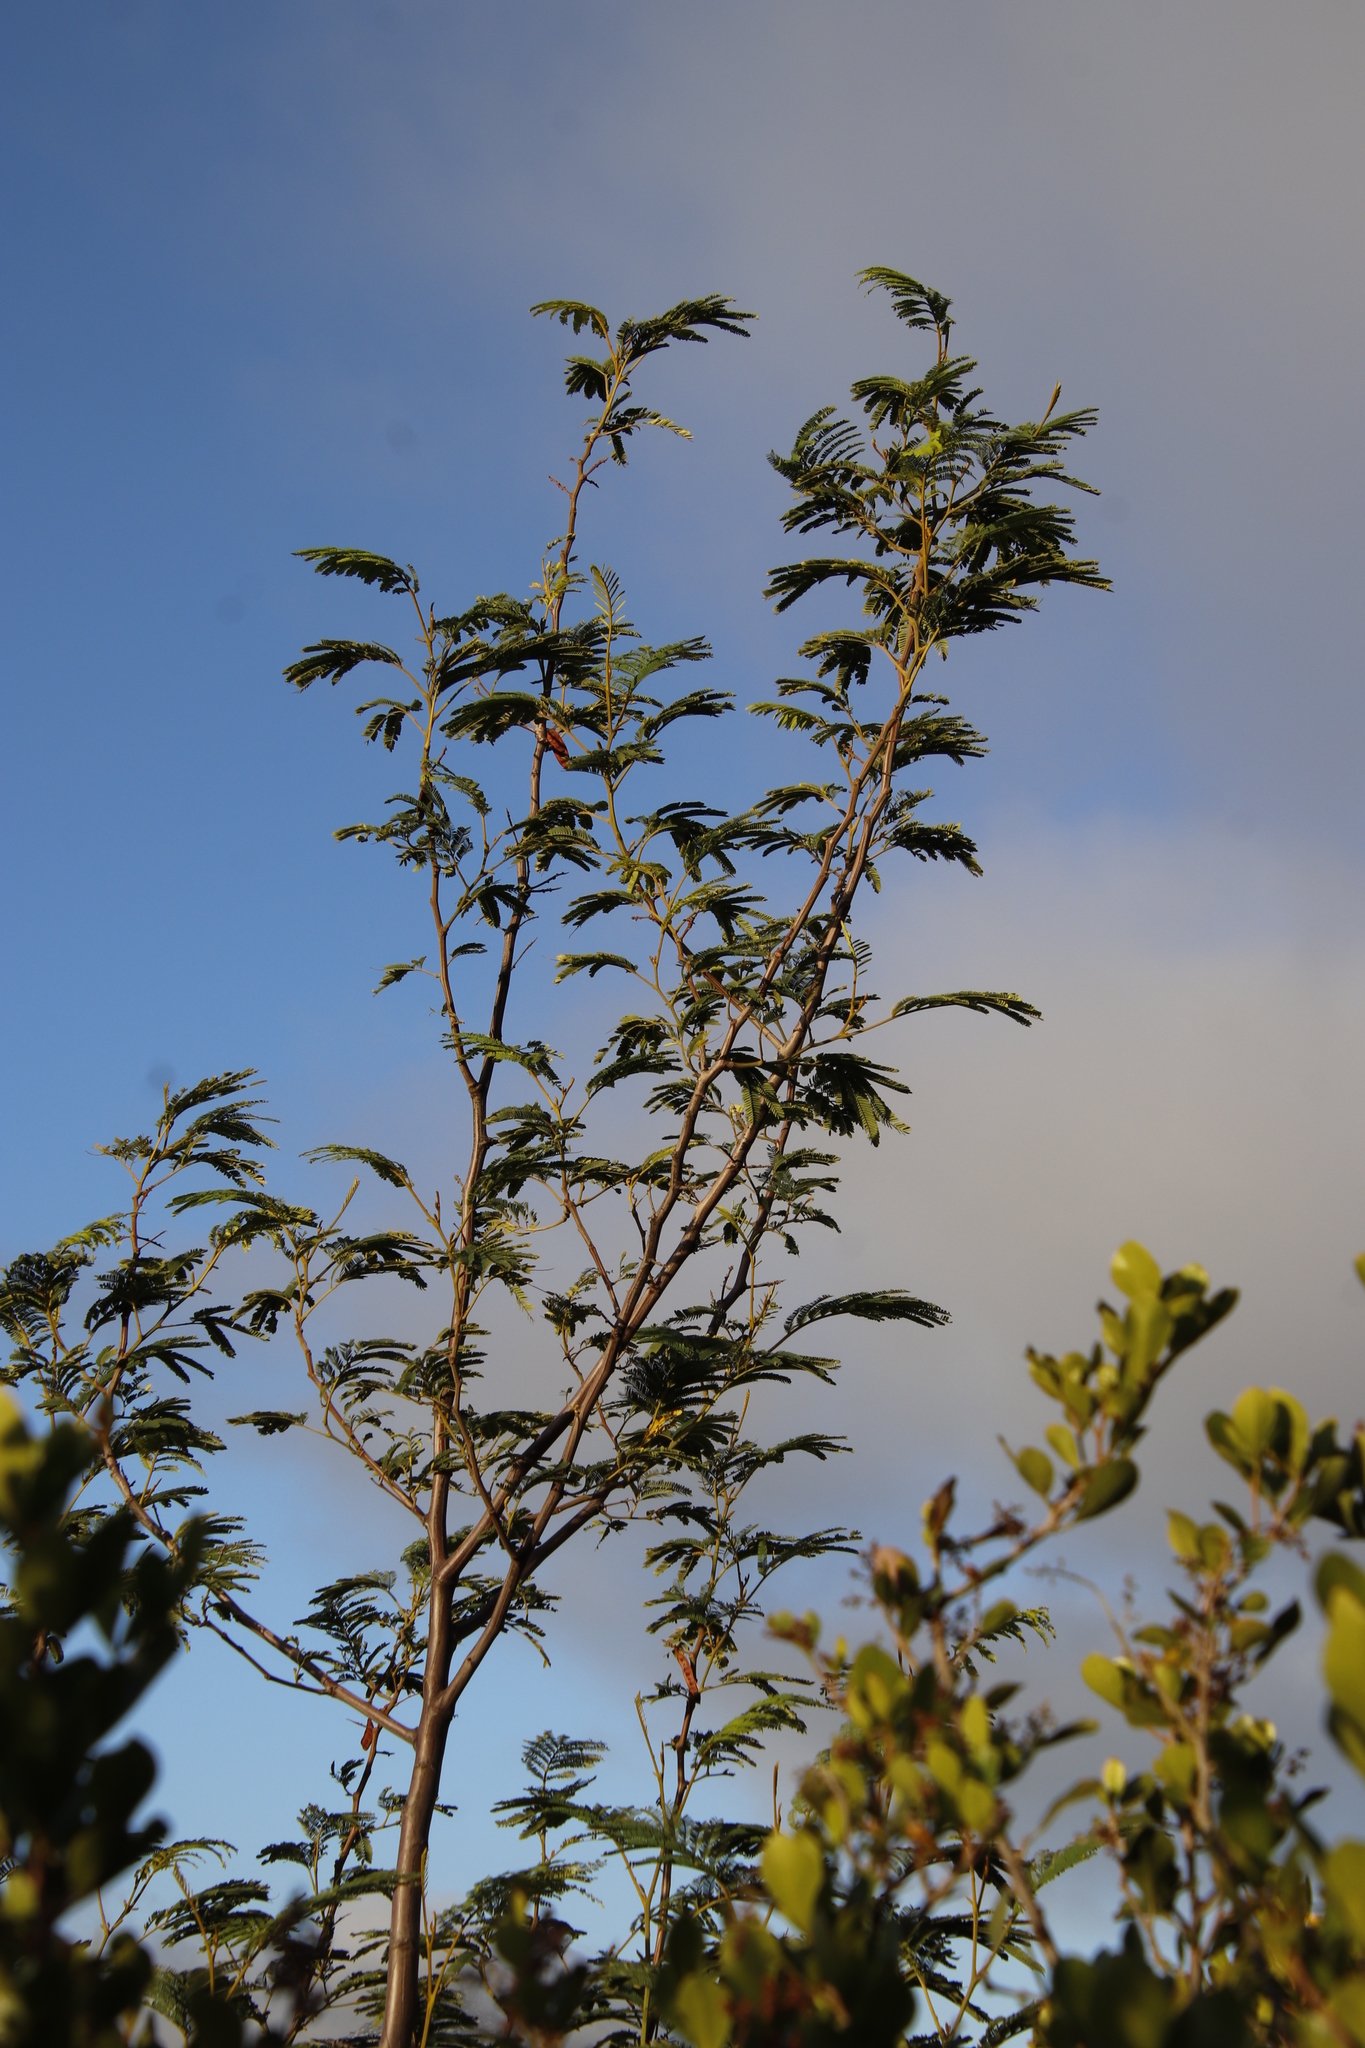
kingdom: Plantae
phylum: Tracheophyta
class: Magnoliopsida
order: Fabales
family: Fabaceae
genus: Paraserianthes
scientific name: Paraserianthes lophantha
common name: Plume albizia
